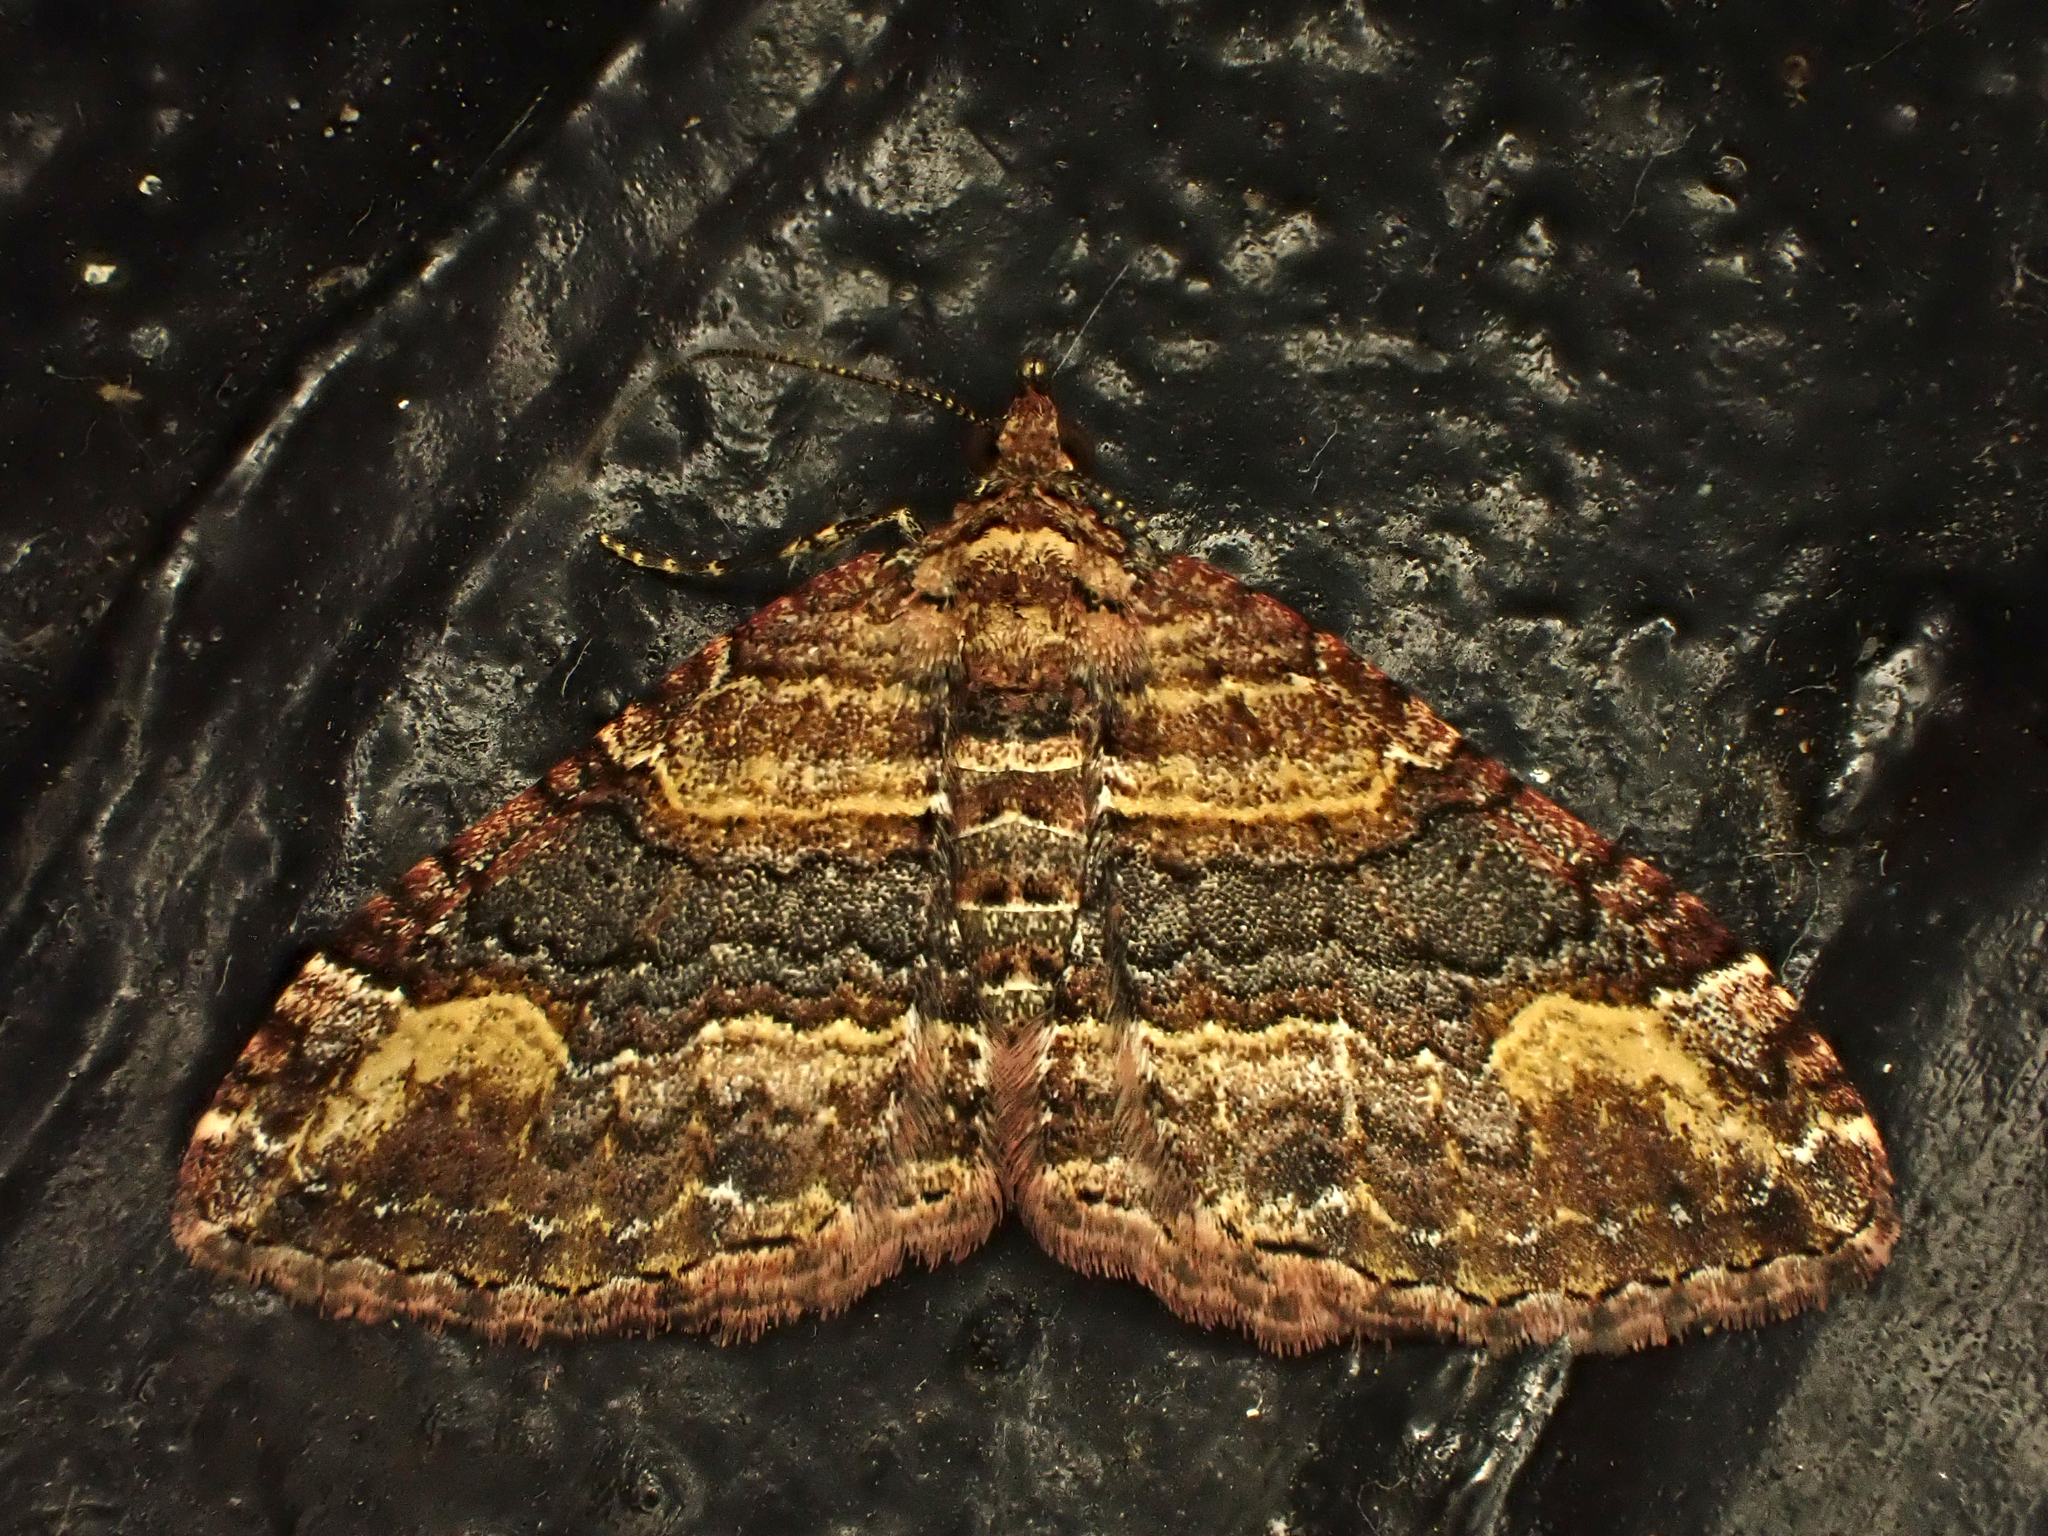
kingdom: Animalia
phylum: Arthropoda
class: Insecta
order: Lepidoptera
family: Geometridae
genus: Epyaxa
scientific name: Epyaxa lucidata
